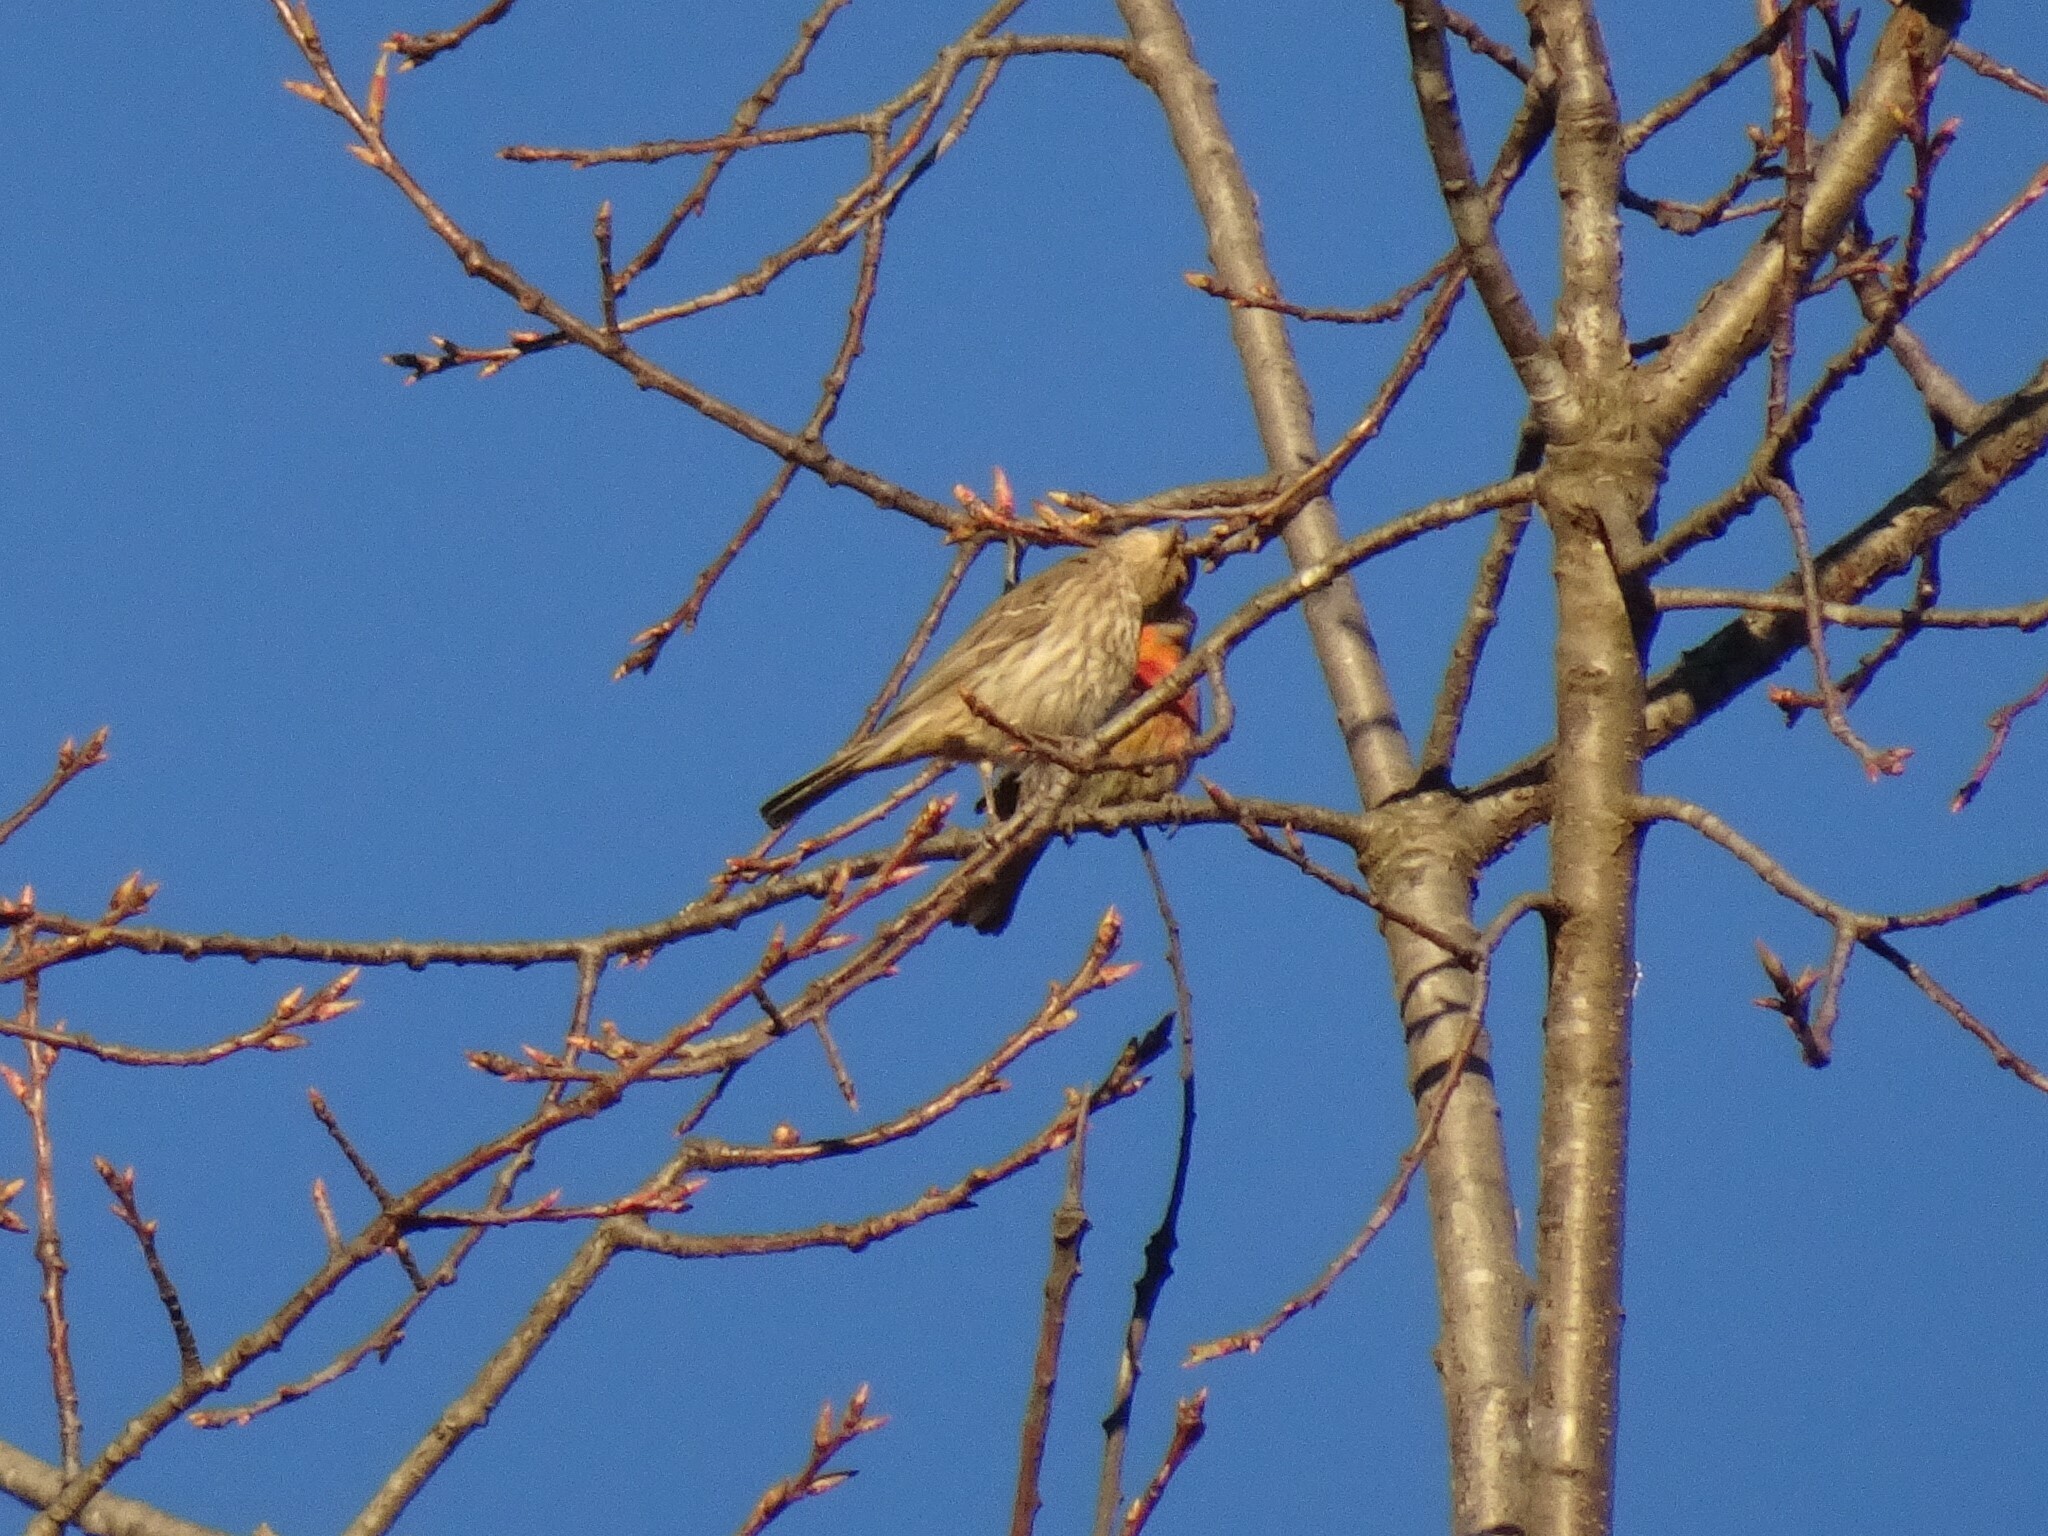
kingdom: Animalia
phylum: Chordata
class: Aves
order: Passeriformes
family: Fringillidae
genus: Haemorhous
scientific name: Haemorhous mexicanus
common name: House finch
